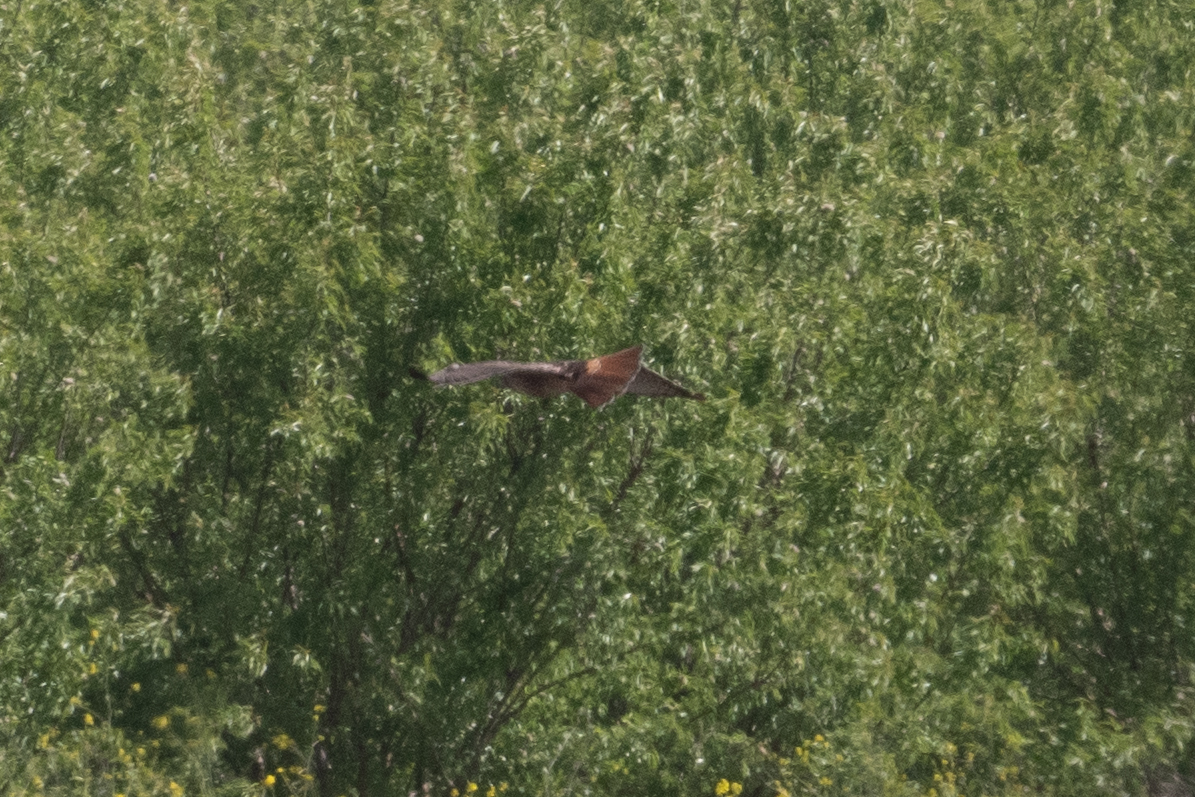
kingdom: Animalia
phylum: Chordata
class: Aves
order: Accipitriformes
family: Accipitridae
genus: Buteo
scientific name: Buteo jamaicensis
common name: Red-tailed hawk
